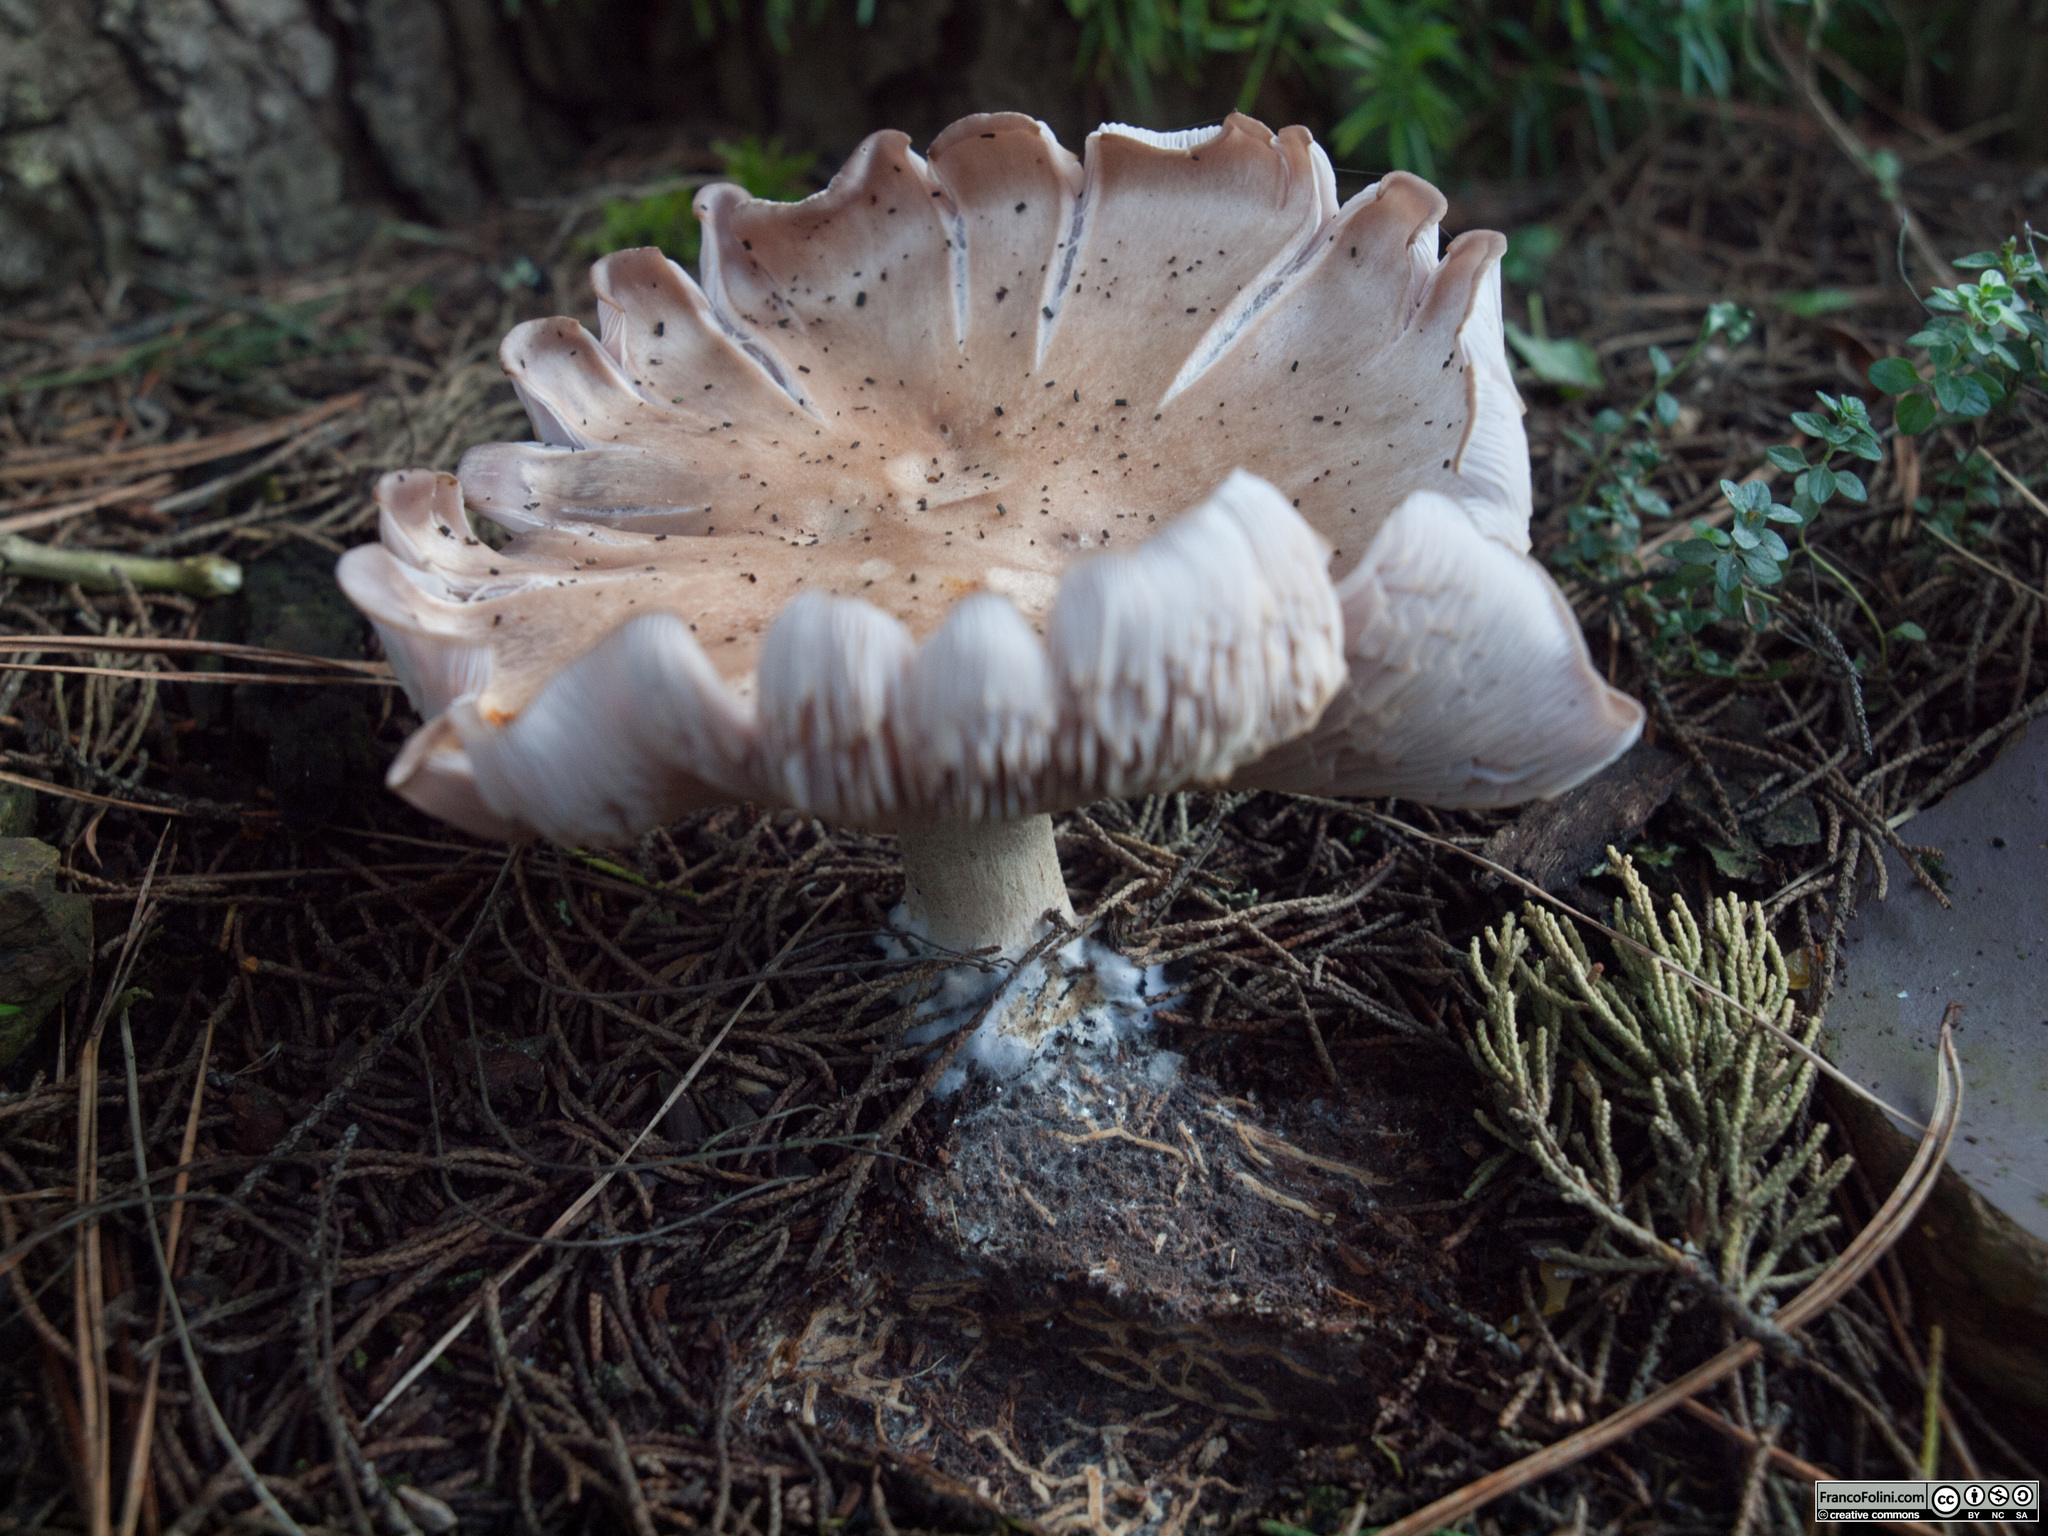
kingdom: Fungi
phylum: Basidiomycota
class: Agaricomycetes
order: Agaricales
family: Tricholomataceae
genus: Collybia
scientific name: Collybia
